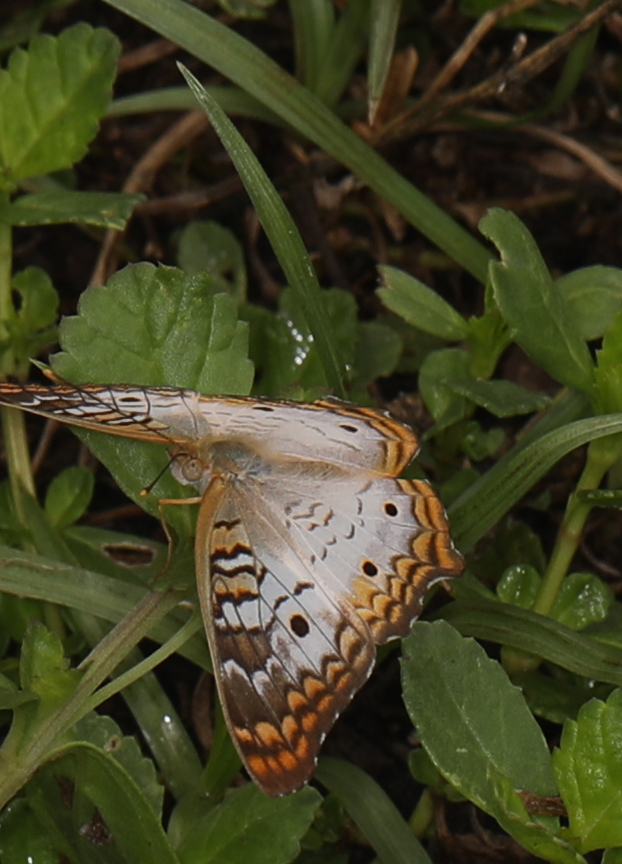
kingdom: Animalia
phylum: Arthropoda
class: Insecta
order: Lepidoptera
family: Nymphalidae
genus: Anartia
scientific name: Anartia jatrophae
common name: White peacock
